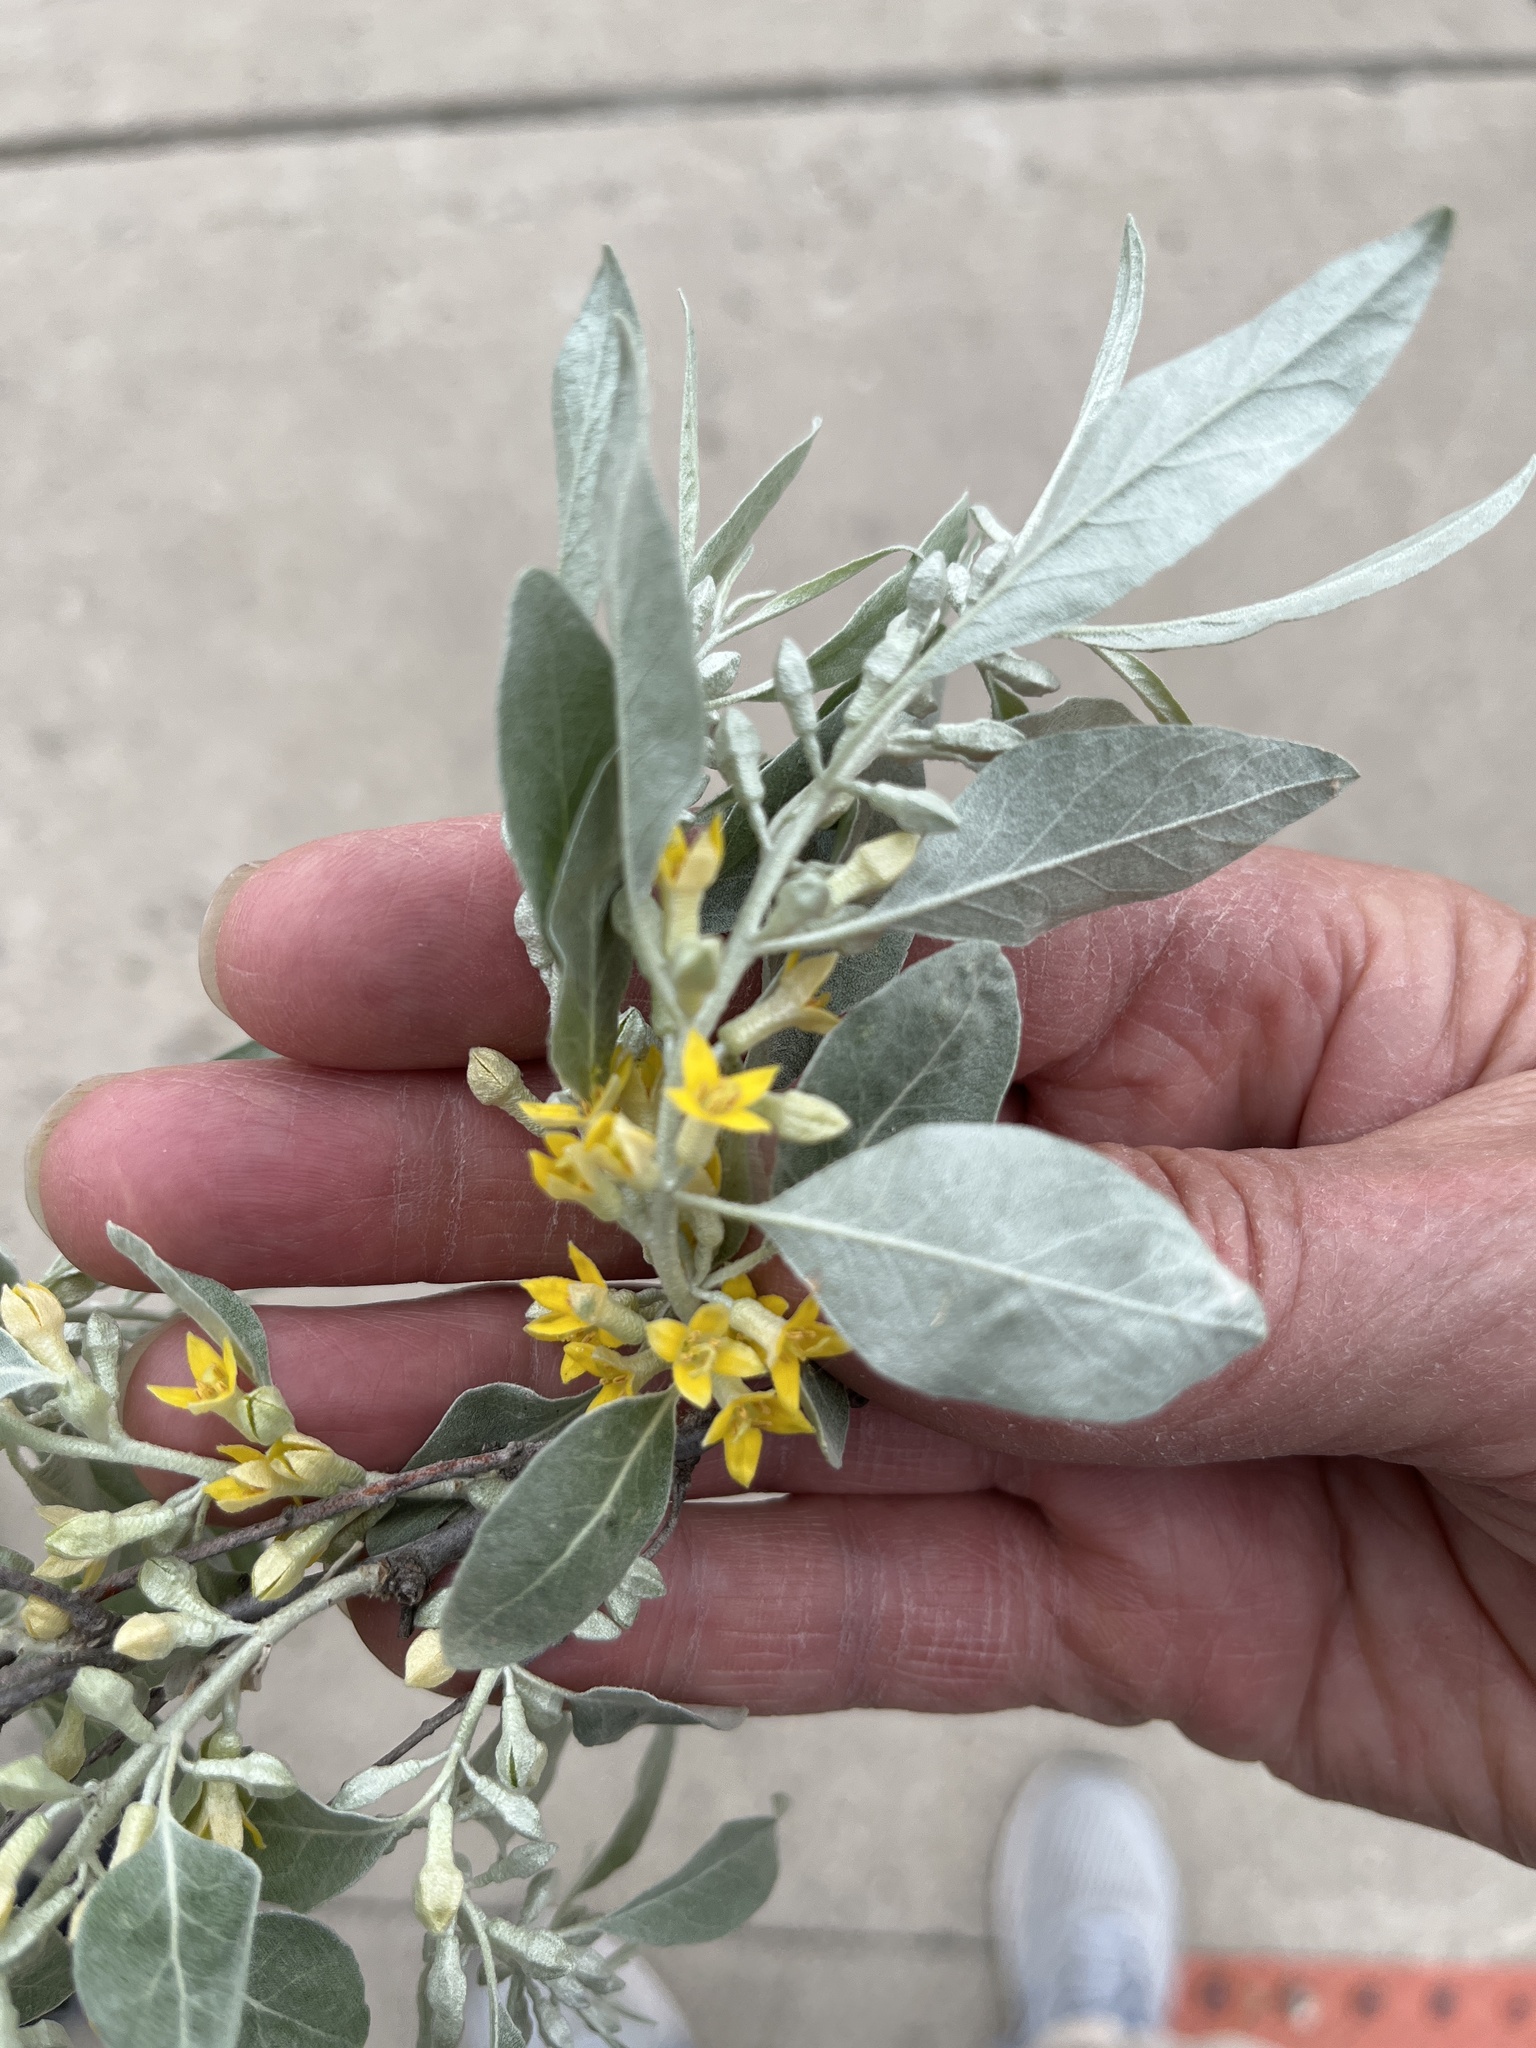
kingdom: Plantae
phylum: Tracheophyta
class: Magnoliopsida
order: Rosales
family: Elaeagnaceae
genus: Elaeagnus
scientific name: Elaeagnus angustifolia
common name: Russian olive
